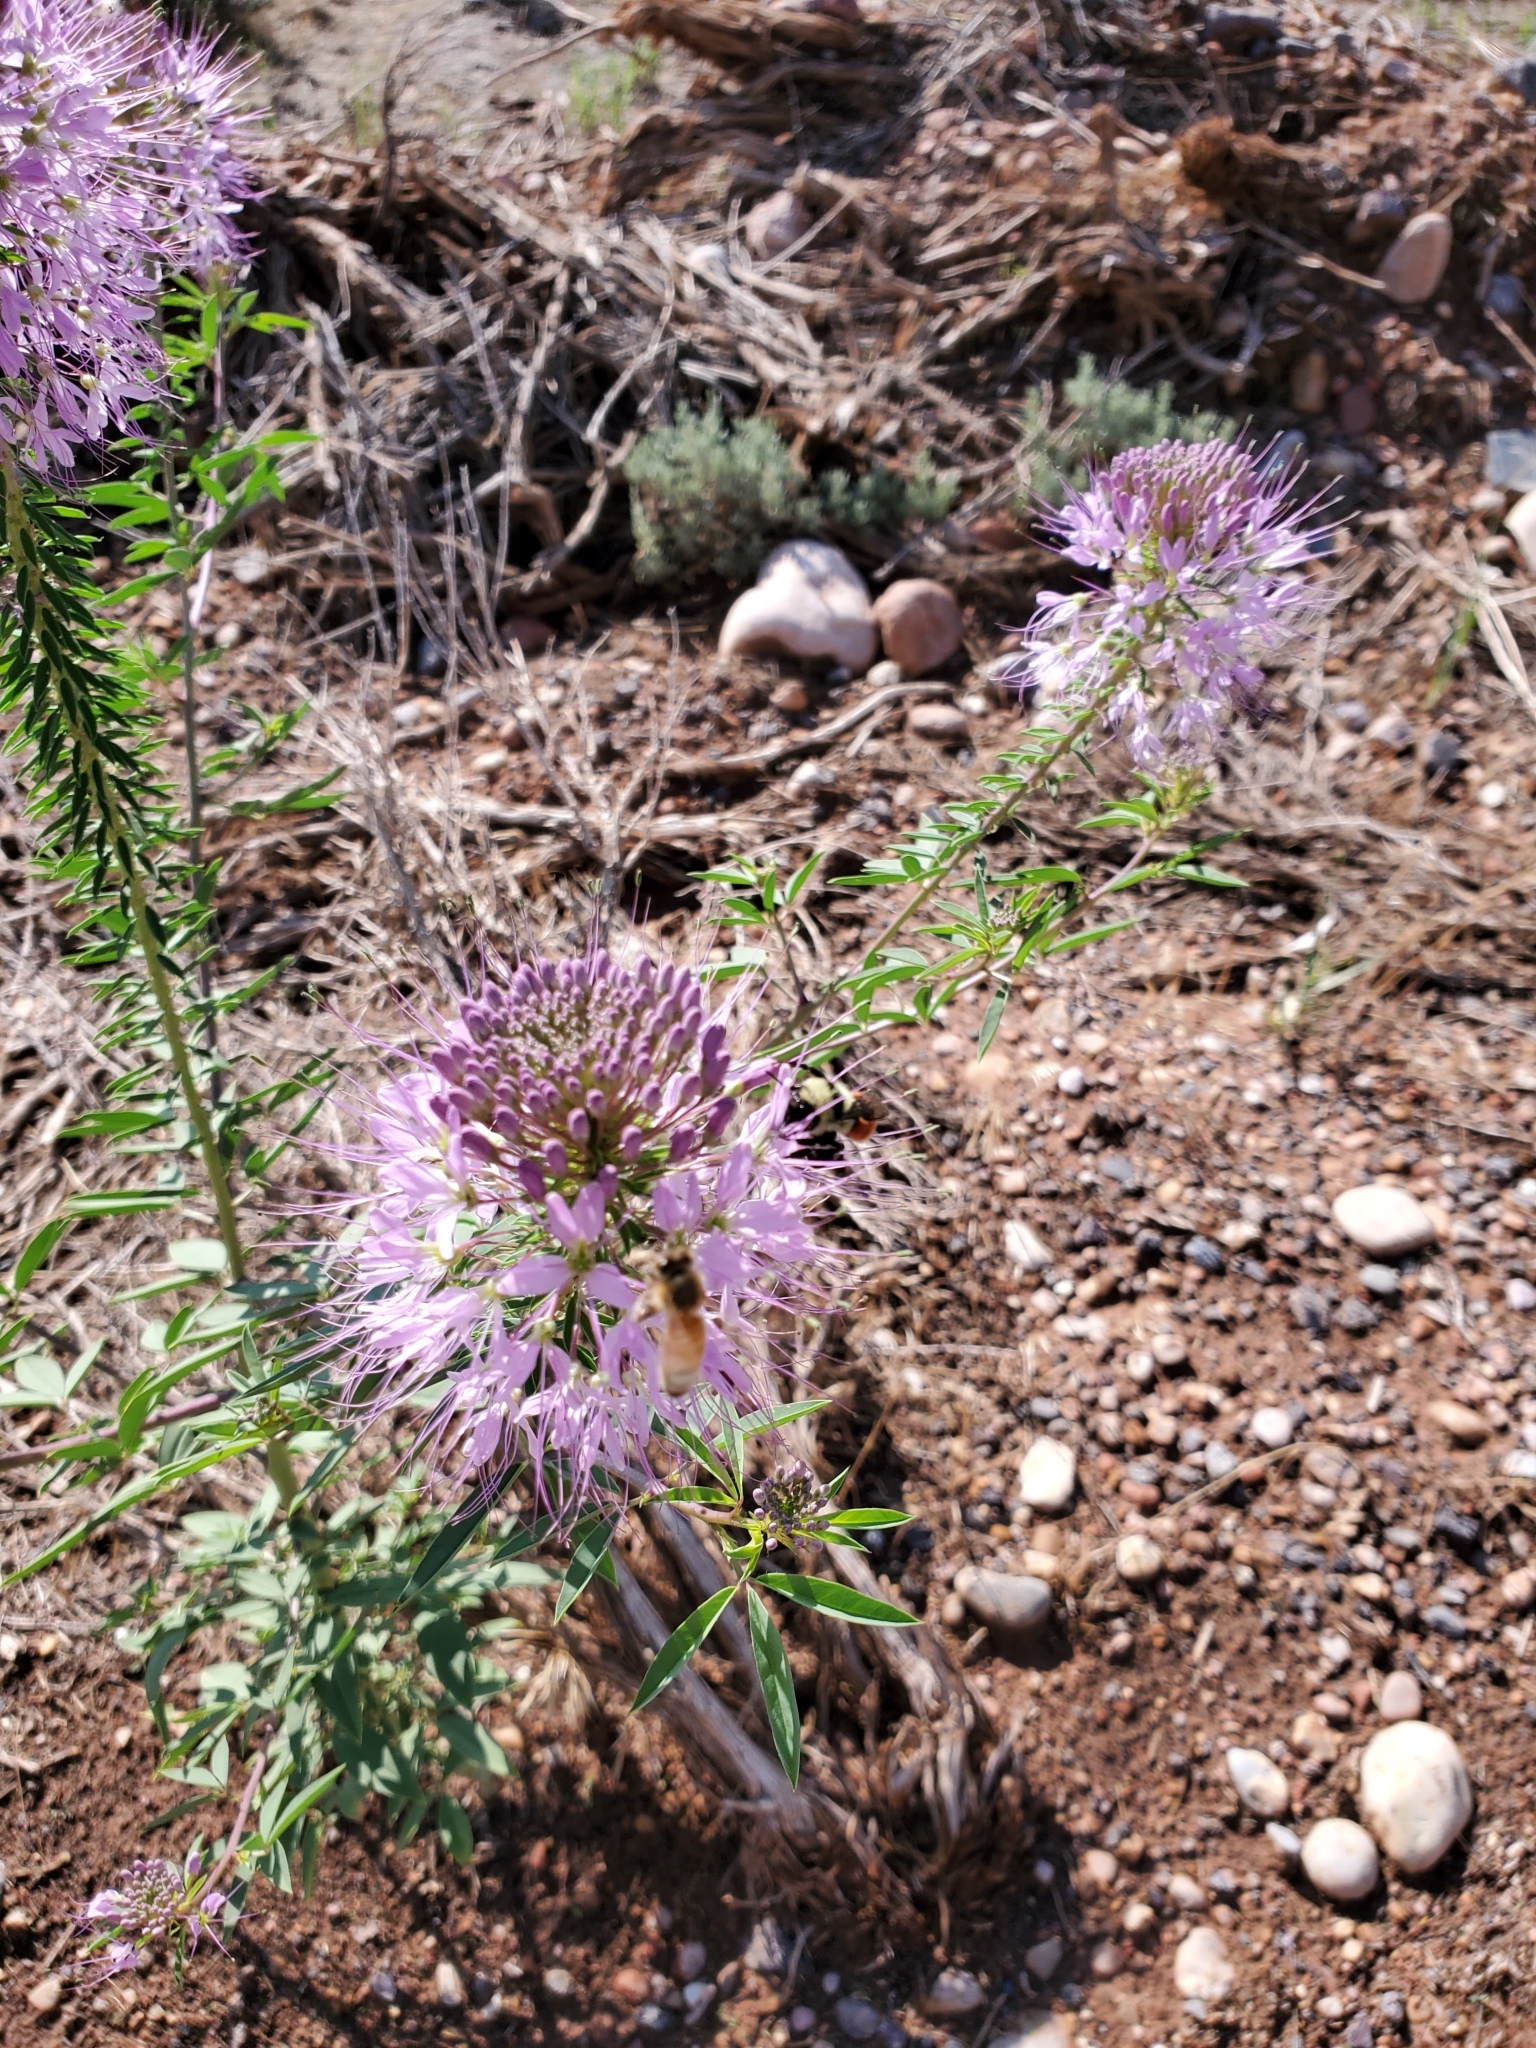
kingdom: Plantae
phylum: Tracheophyta
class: Magnoliopsida
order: Brassicales
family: Cleomaceae
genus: Cleomella
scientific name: Cleomella serrulata
